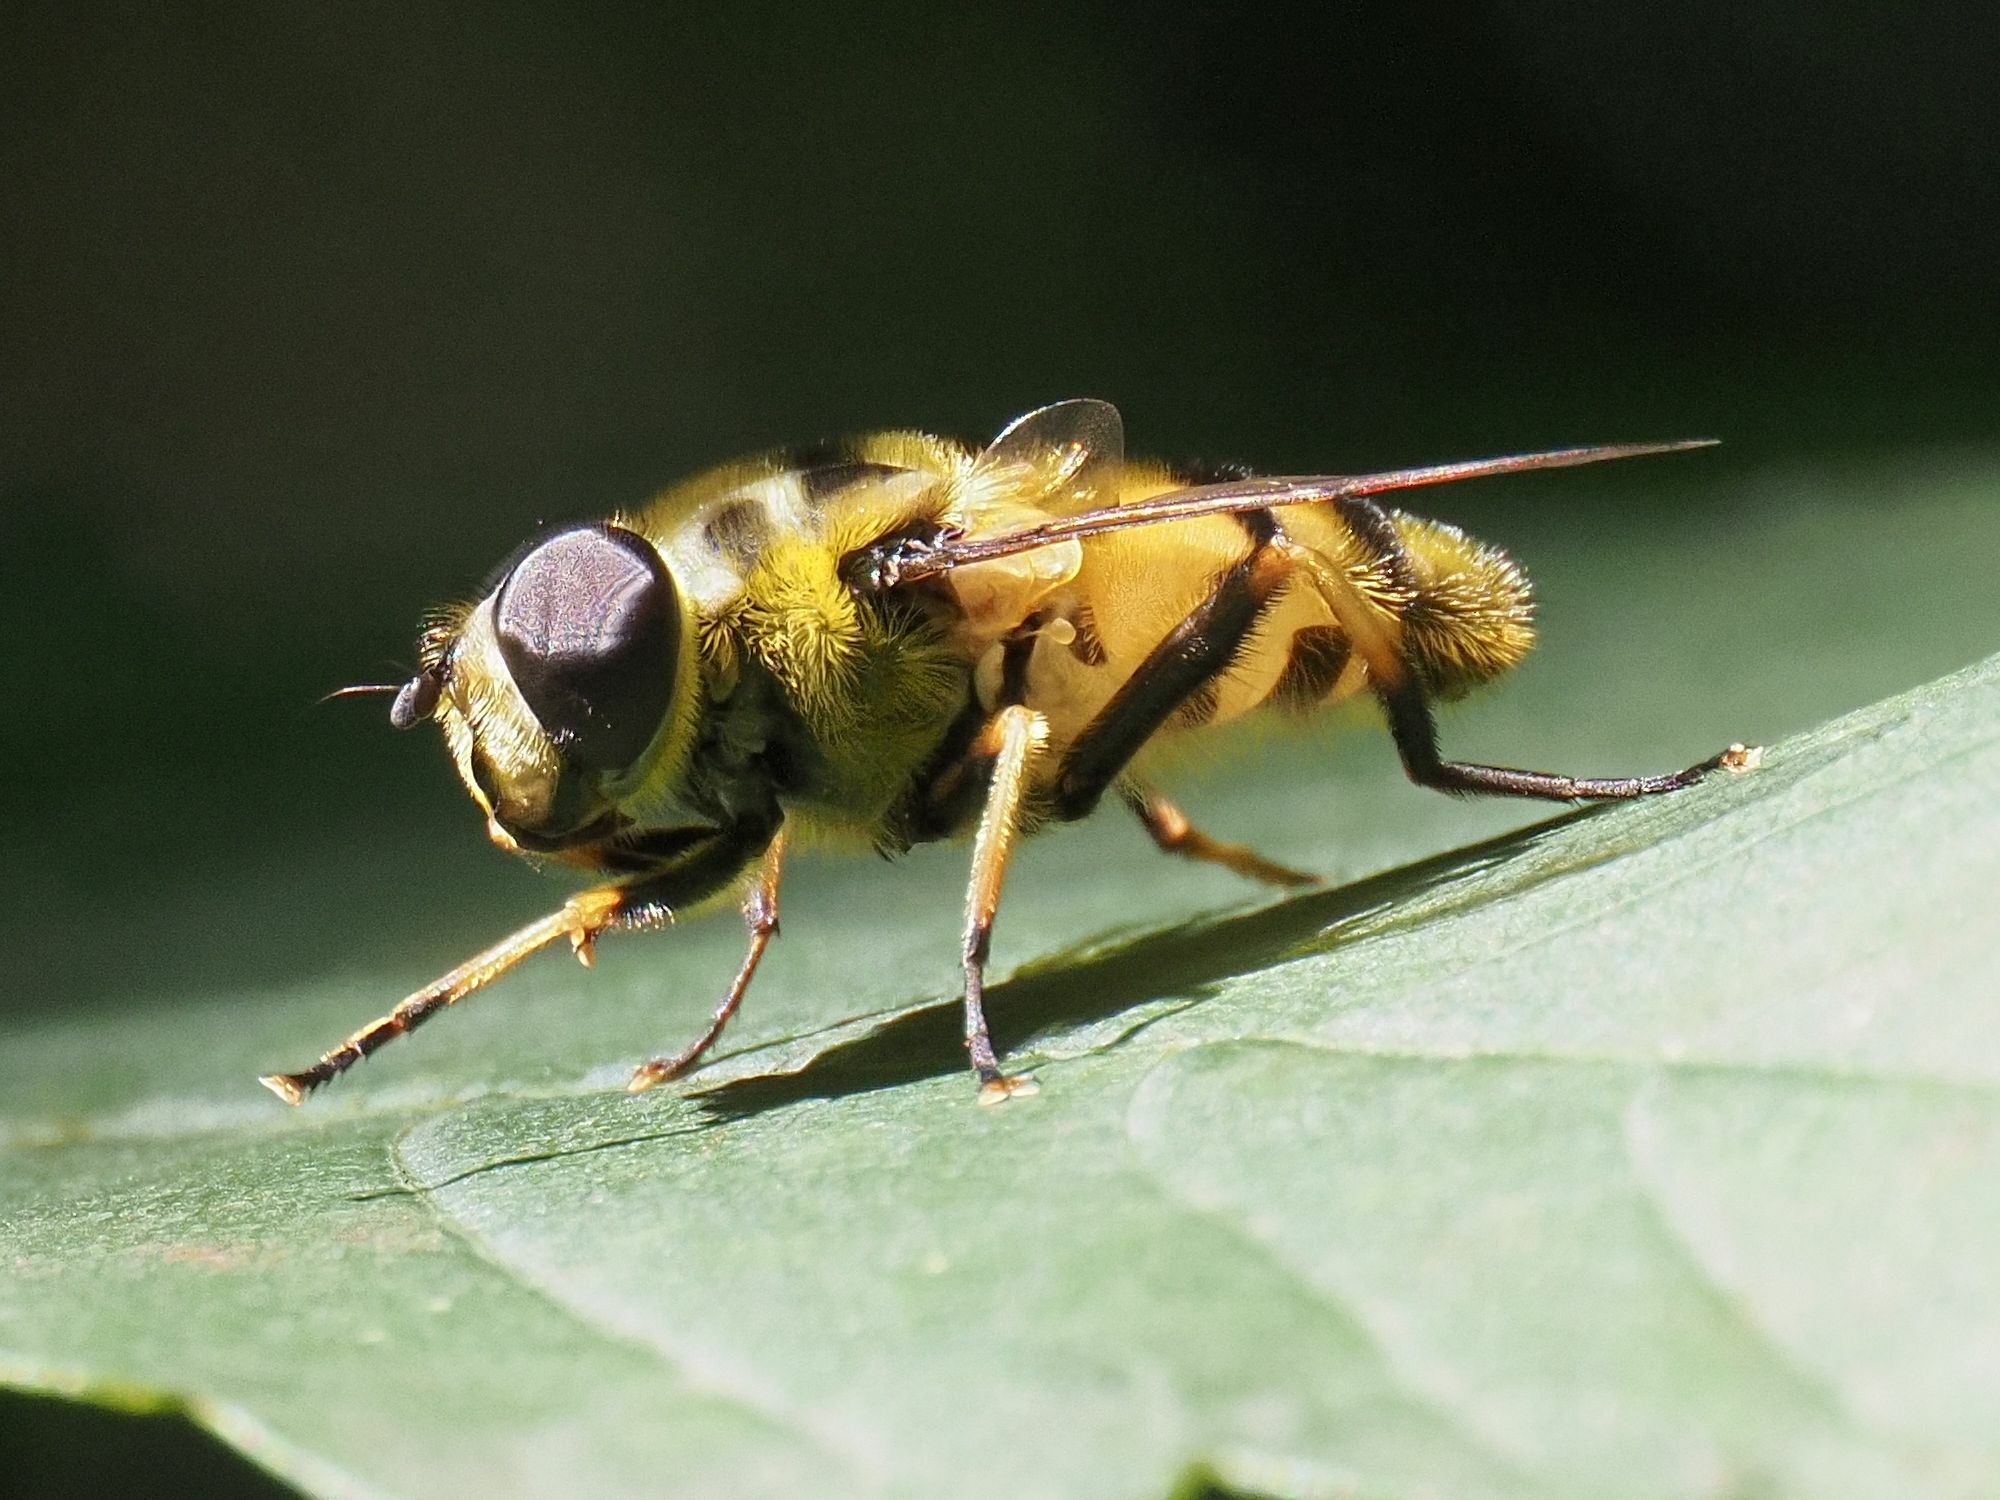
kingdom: Animalia
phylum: Arthropoda
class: Insecta
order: Diptera
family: Syrphidae
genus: Myathropa
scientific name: Myathropa florea
